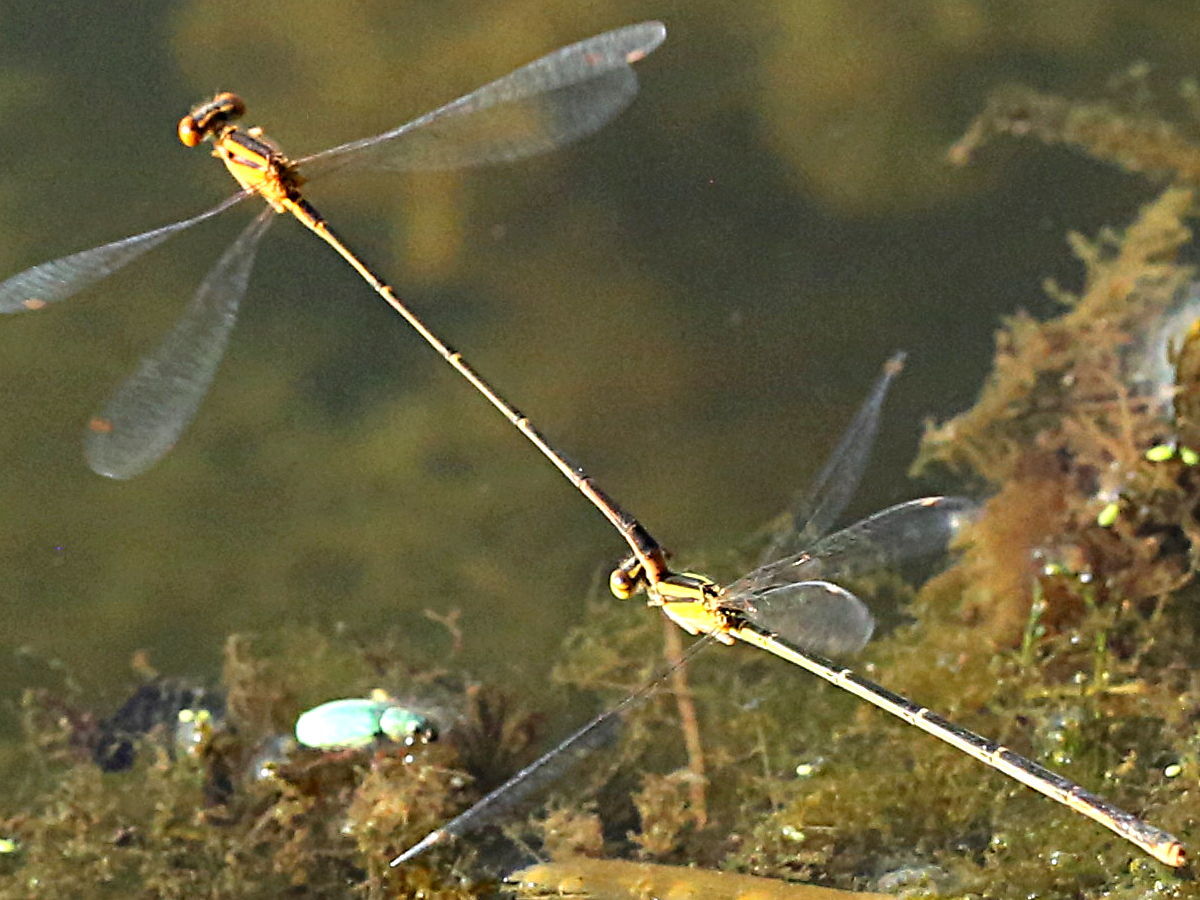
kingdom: Animalia
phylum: Arthropoda
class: Insecta
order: Odonata
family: Coenagrionidae
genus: Enallagma
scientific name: Enallagma signatum
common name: Orange bluet
